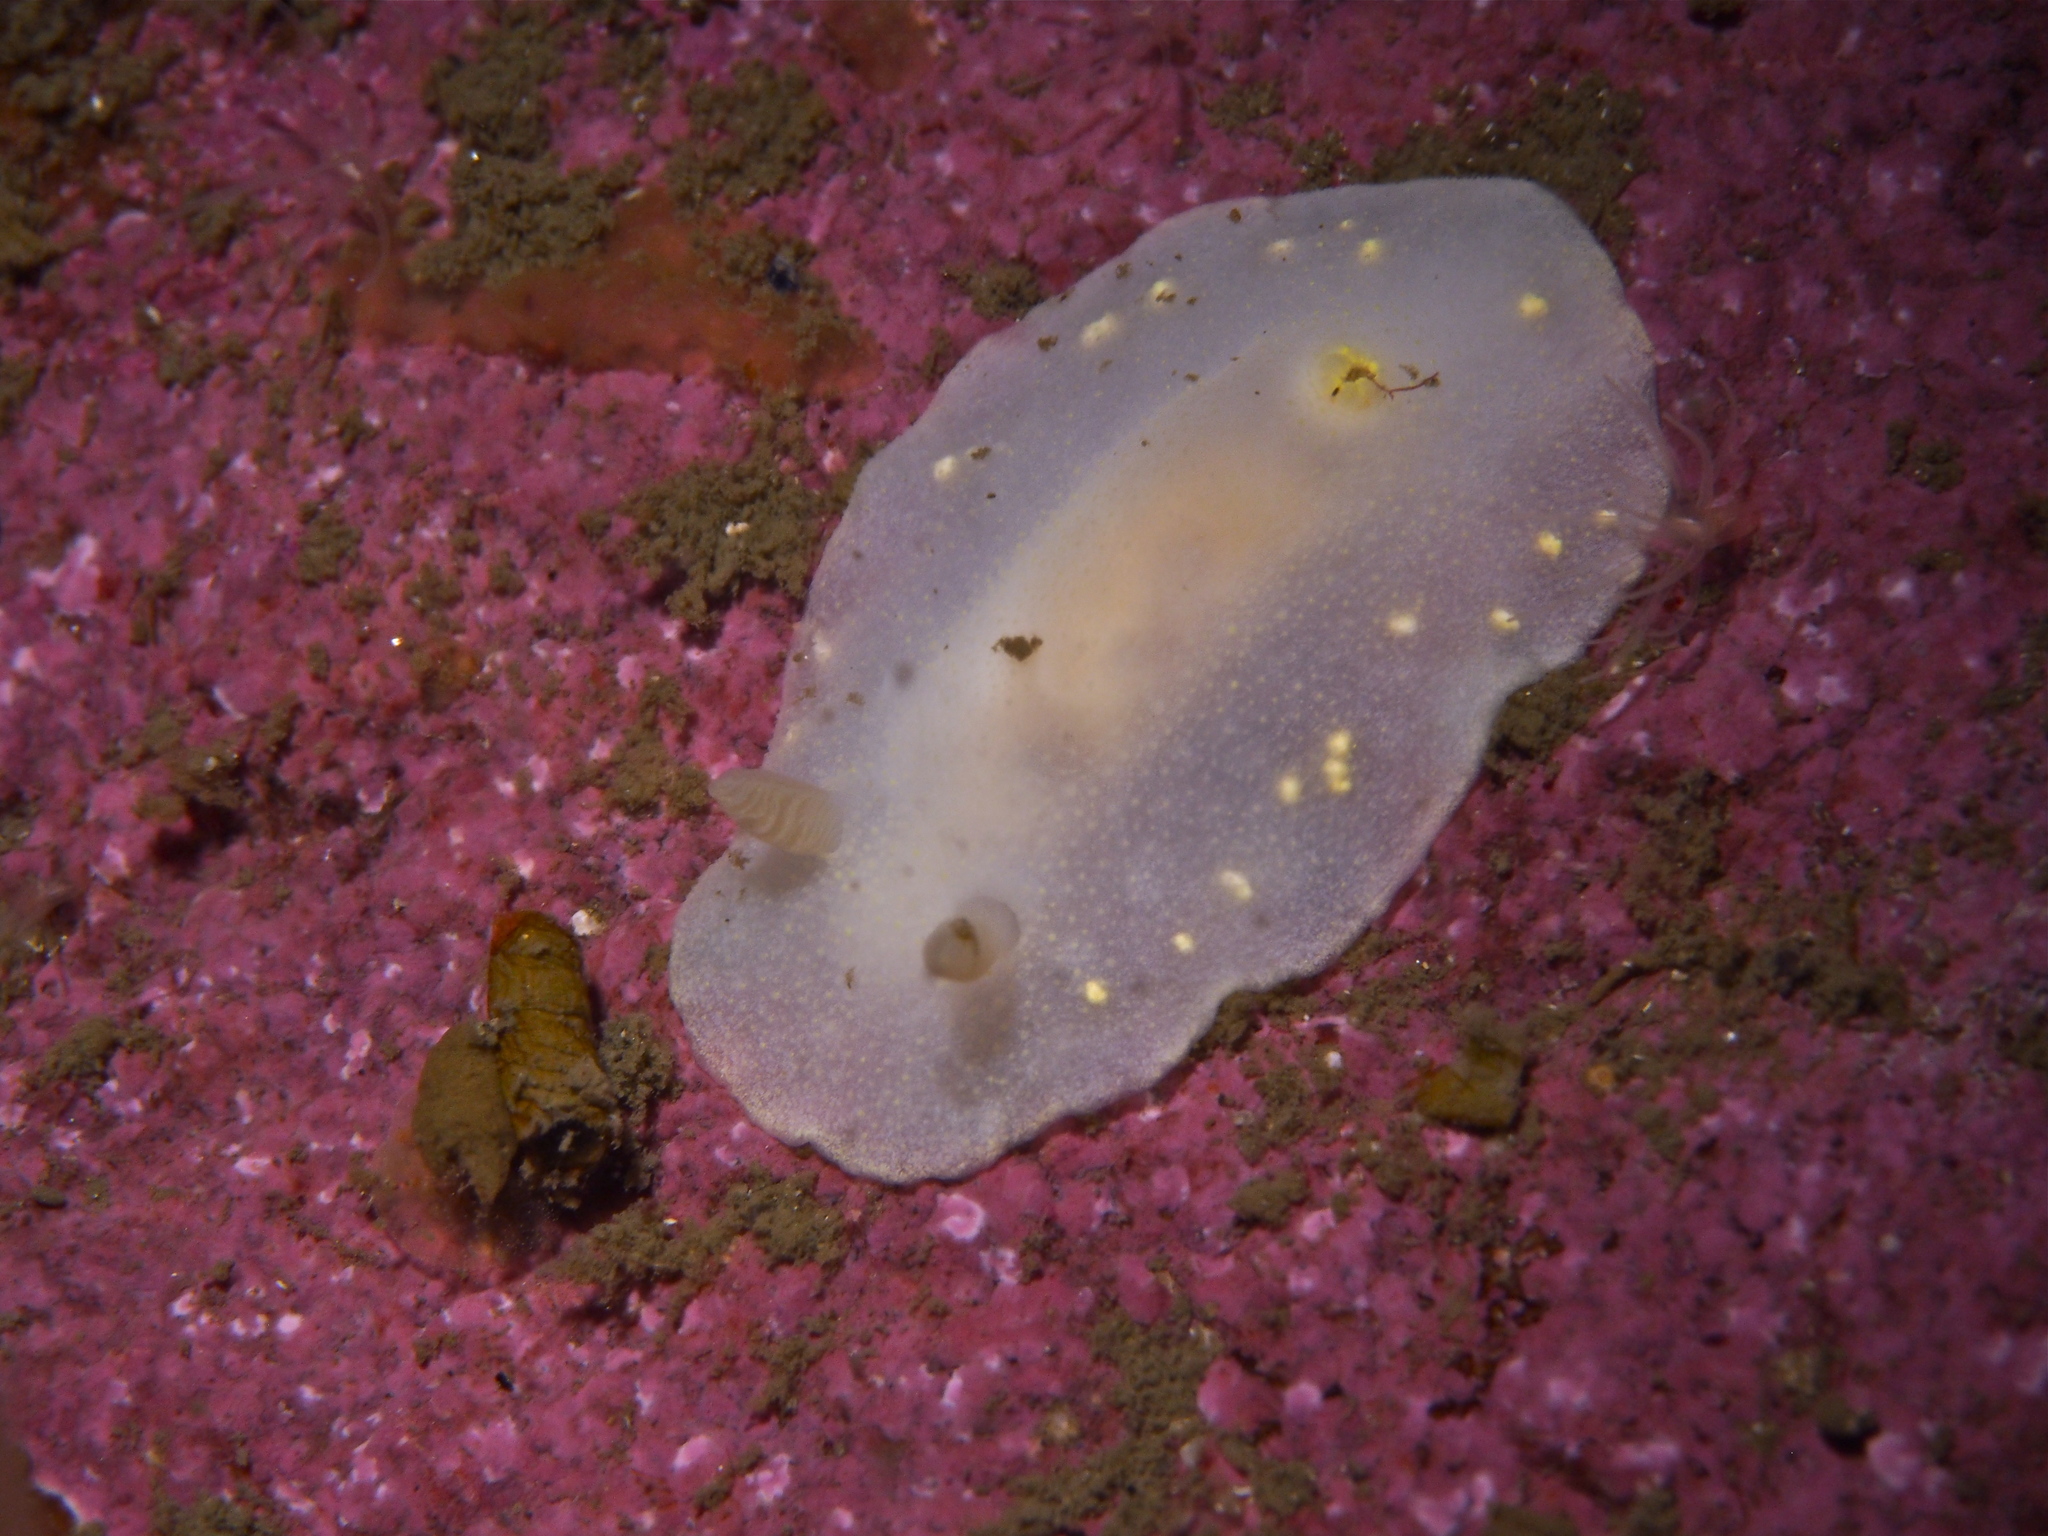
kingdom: Animalia
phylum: Mollusca
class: Gastropoda
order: Nudibranchia
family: Cadlinidae
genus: Cadlina
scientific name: Cadlina laevis
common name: White atlantic cadlina
